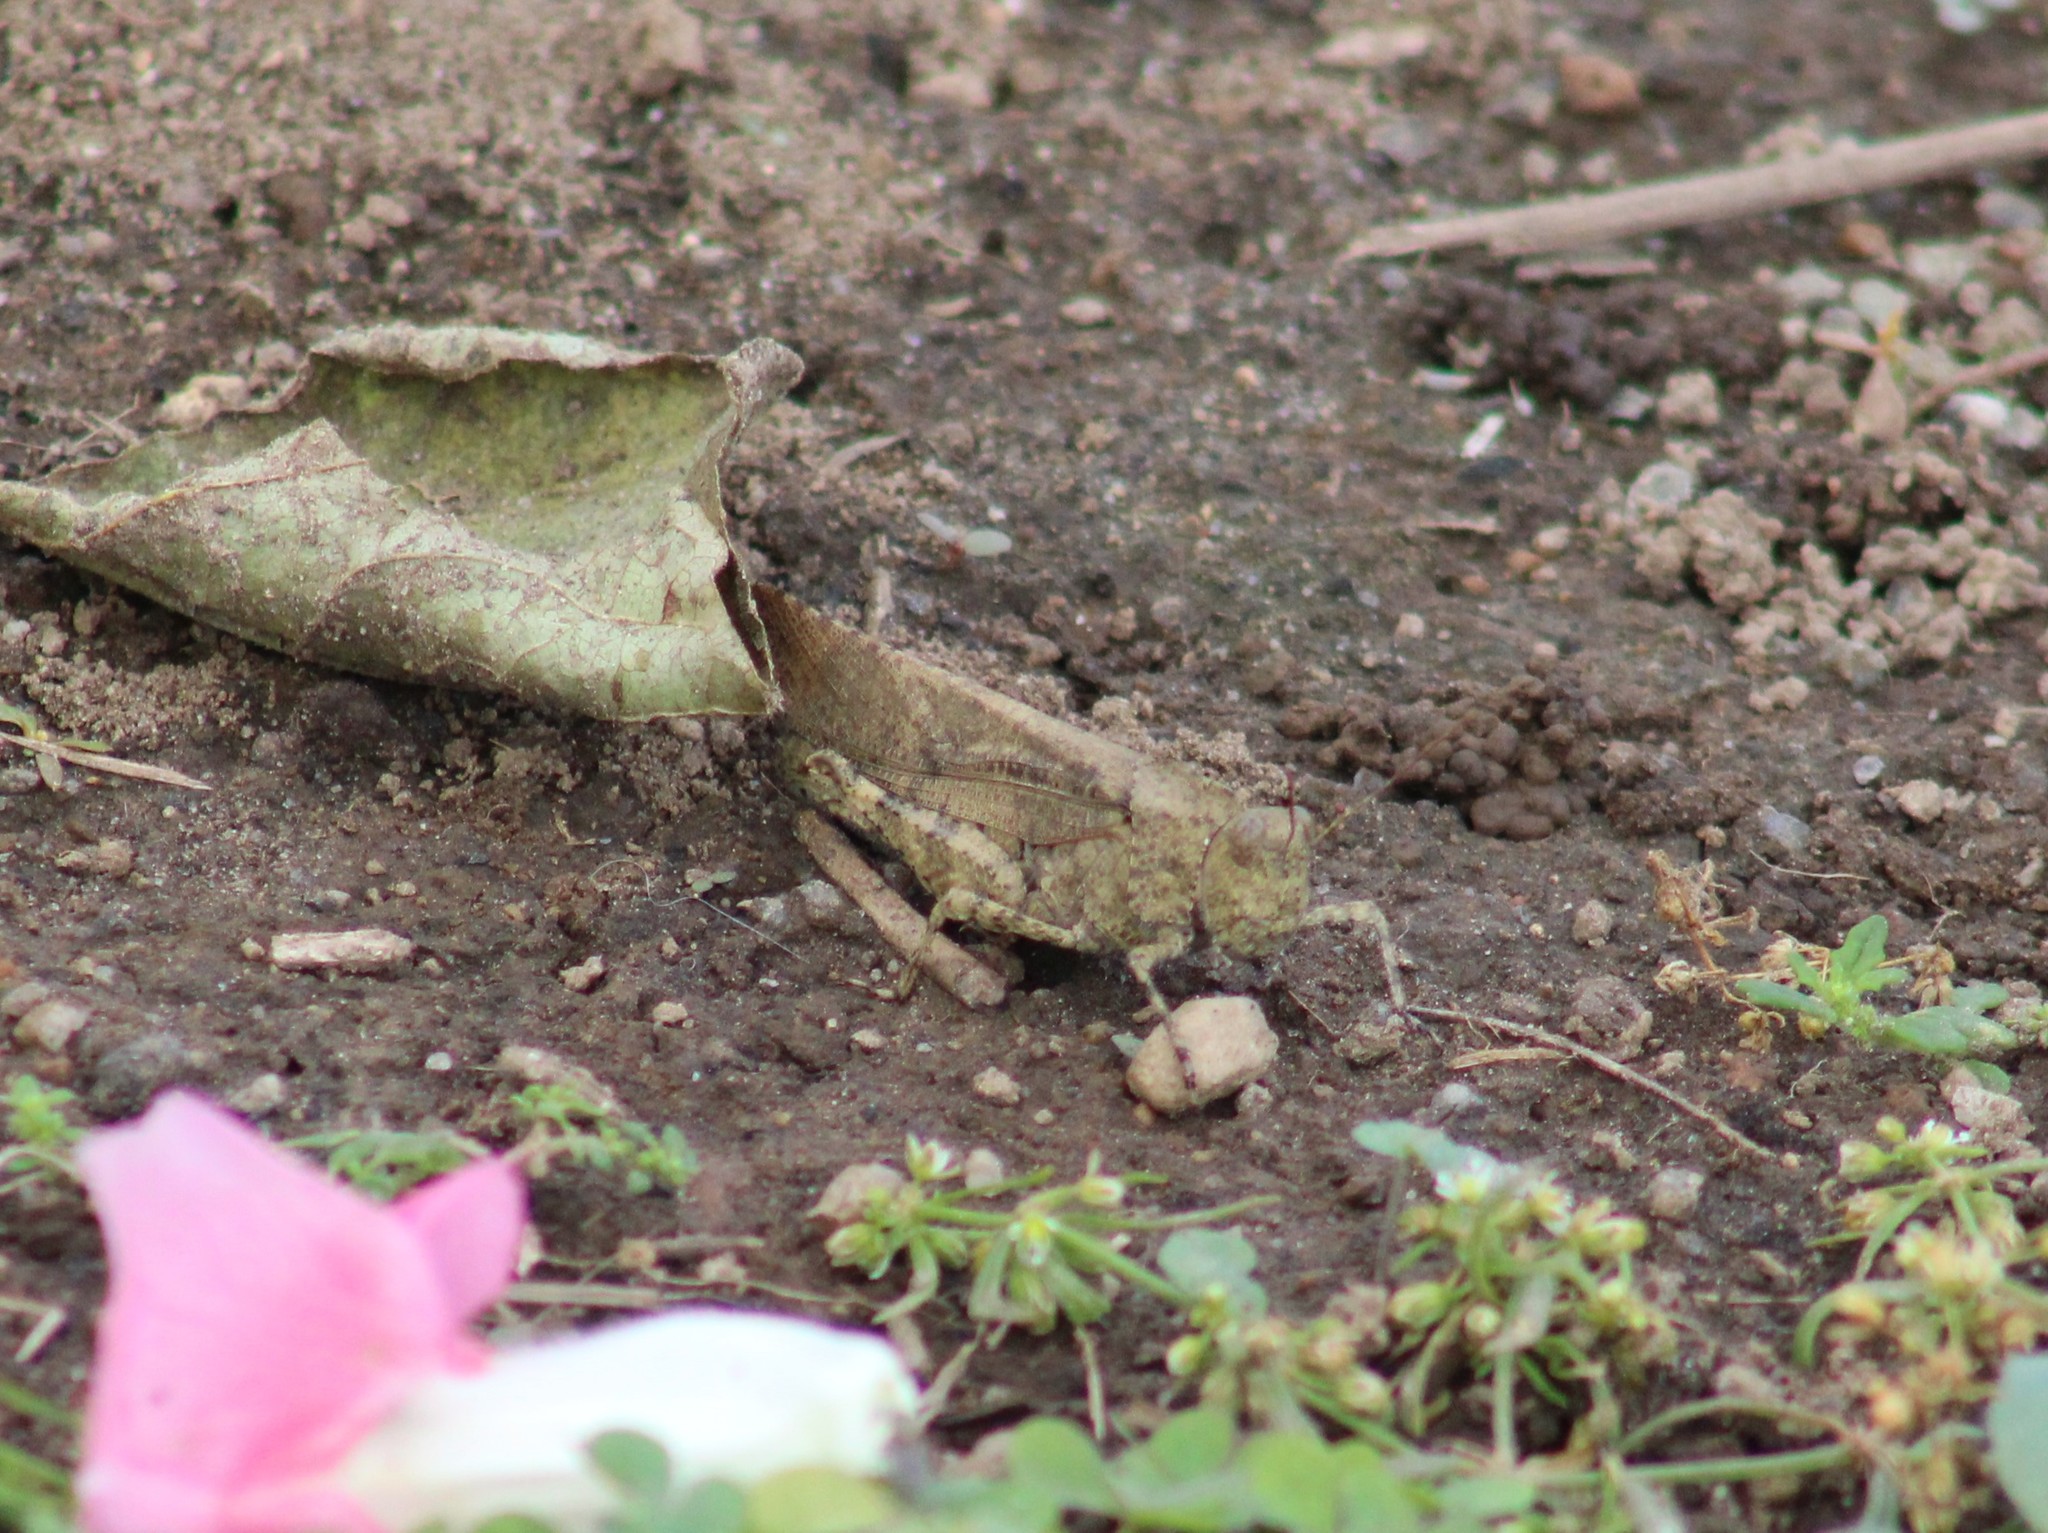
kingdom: Animalia
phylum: Arthropoda
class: Insecta
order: Orthoptera
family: Acrididae
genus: Dissosteira
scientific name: Dissosteira carolina
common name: Carolina grasshopper
